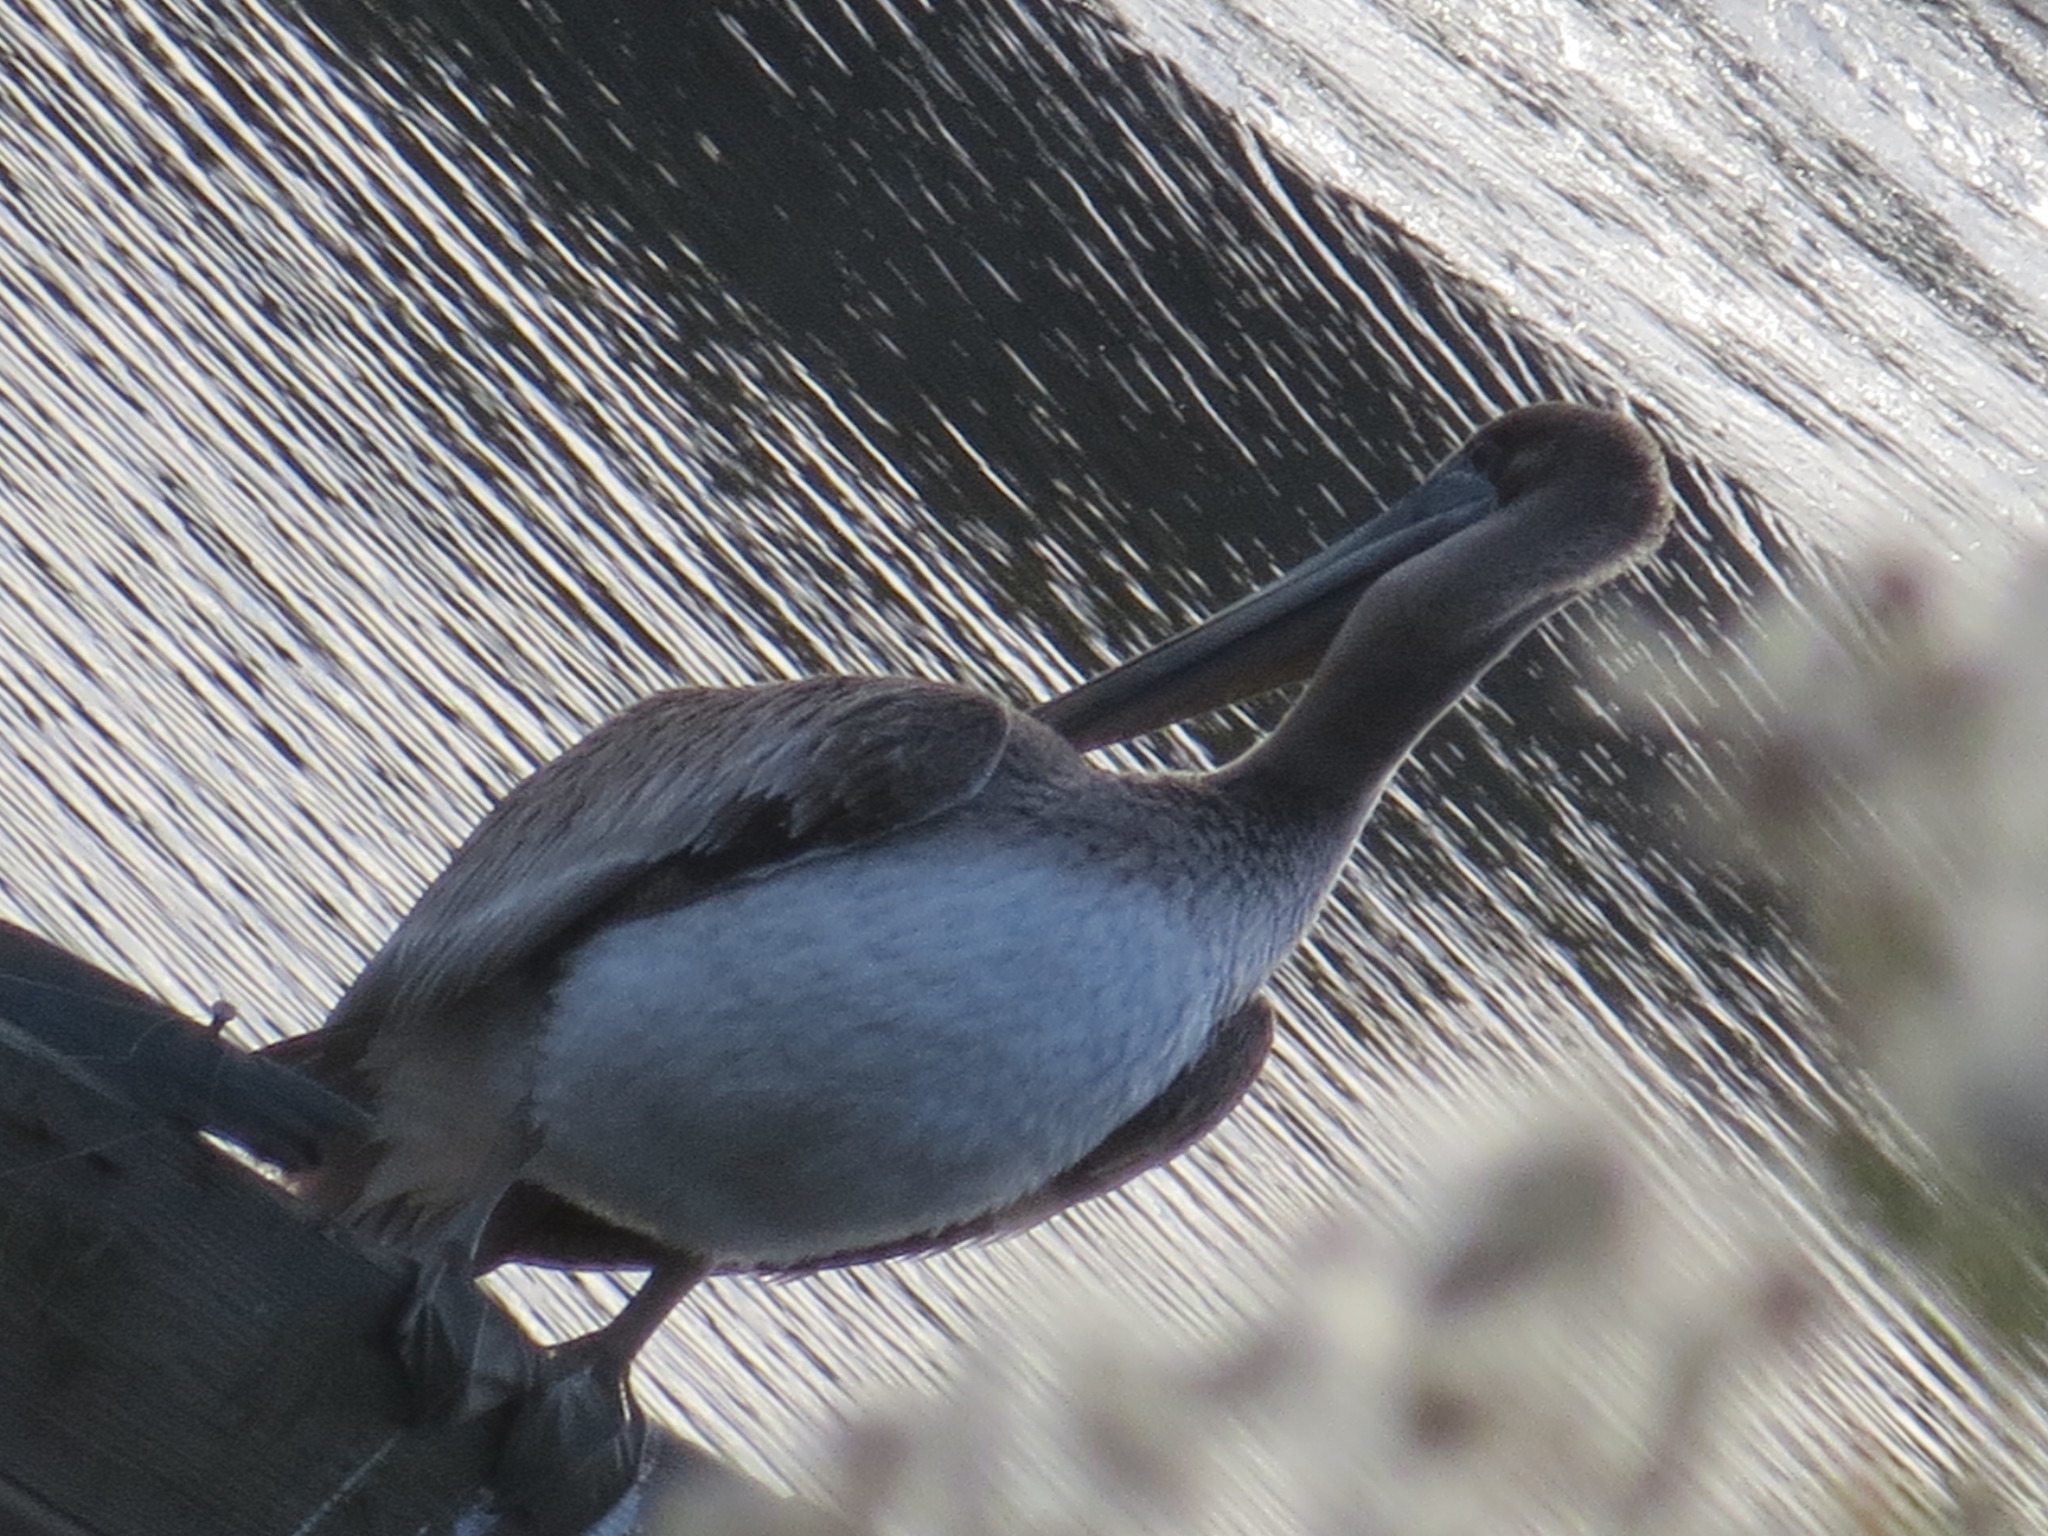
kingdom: Animalia
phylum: Chordata
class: Aves
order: Pelecaniformes
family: Pelecanidae
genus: Pelecanus
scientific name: Pelecanus occidentalis
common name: Brown pelican
